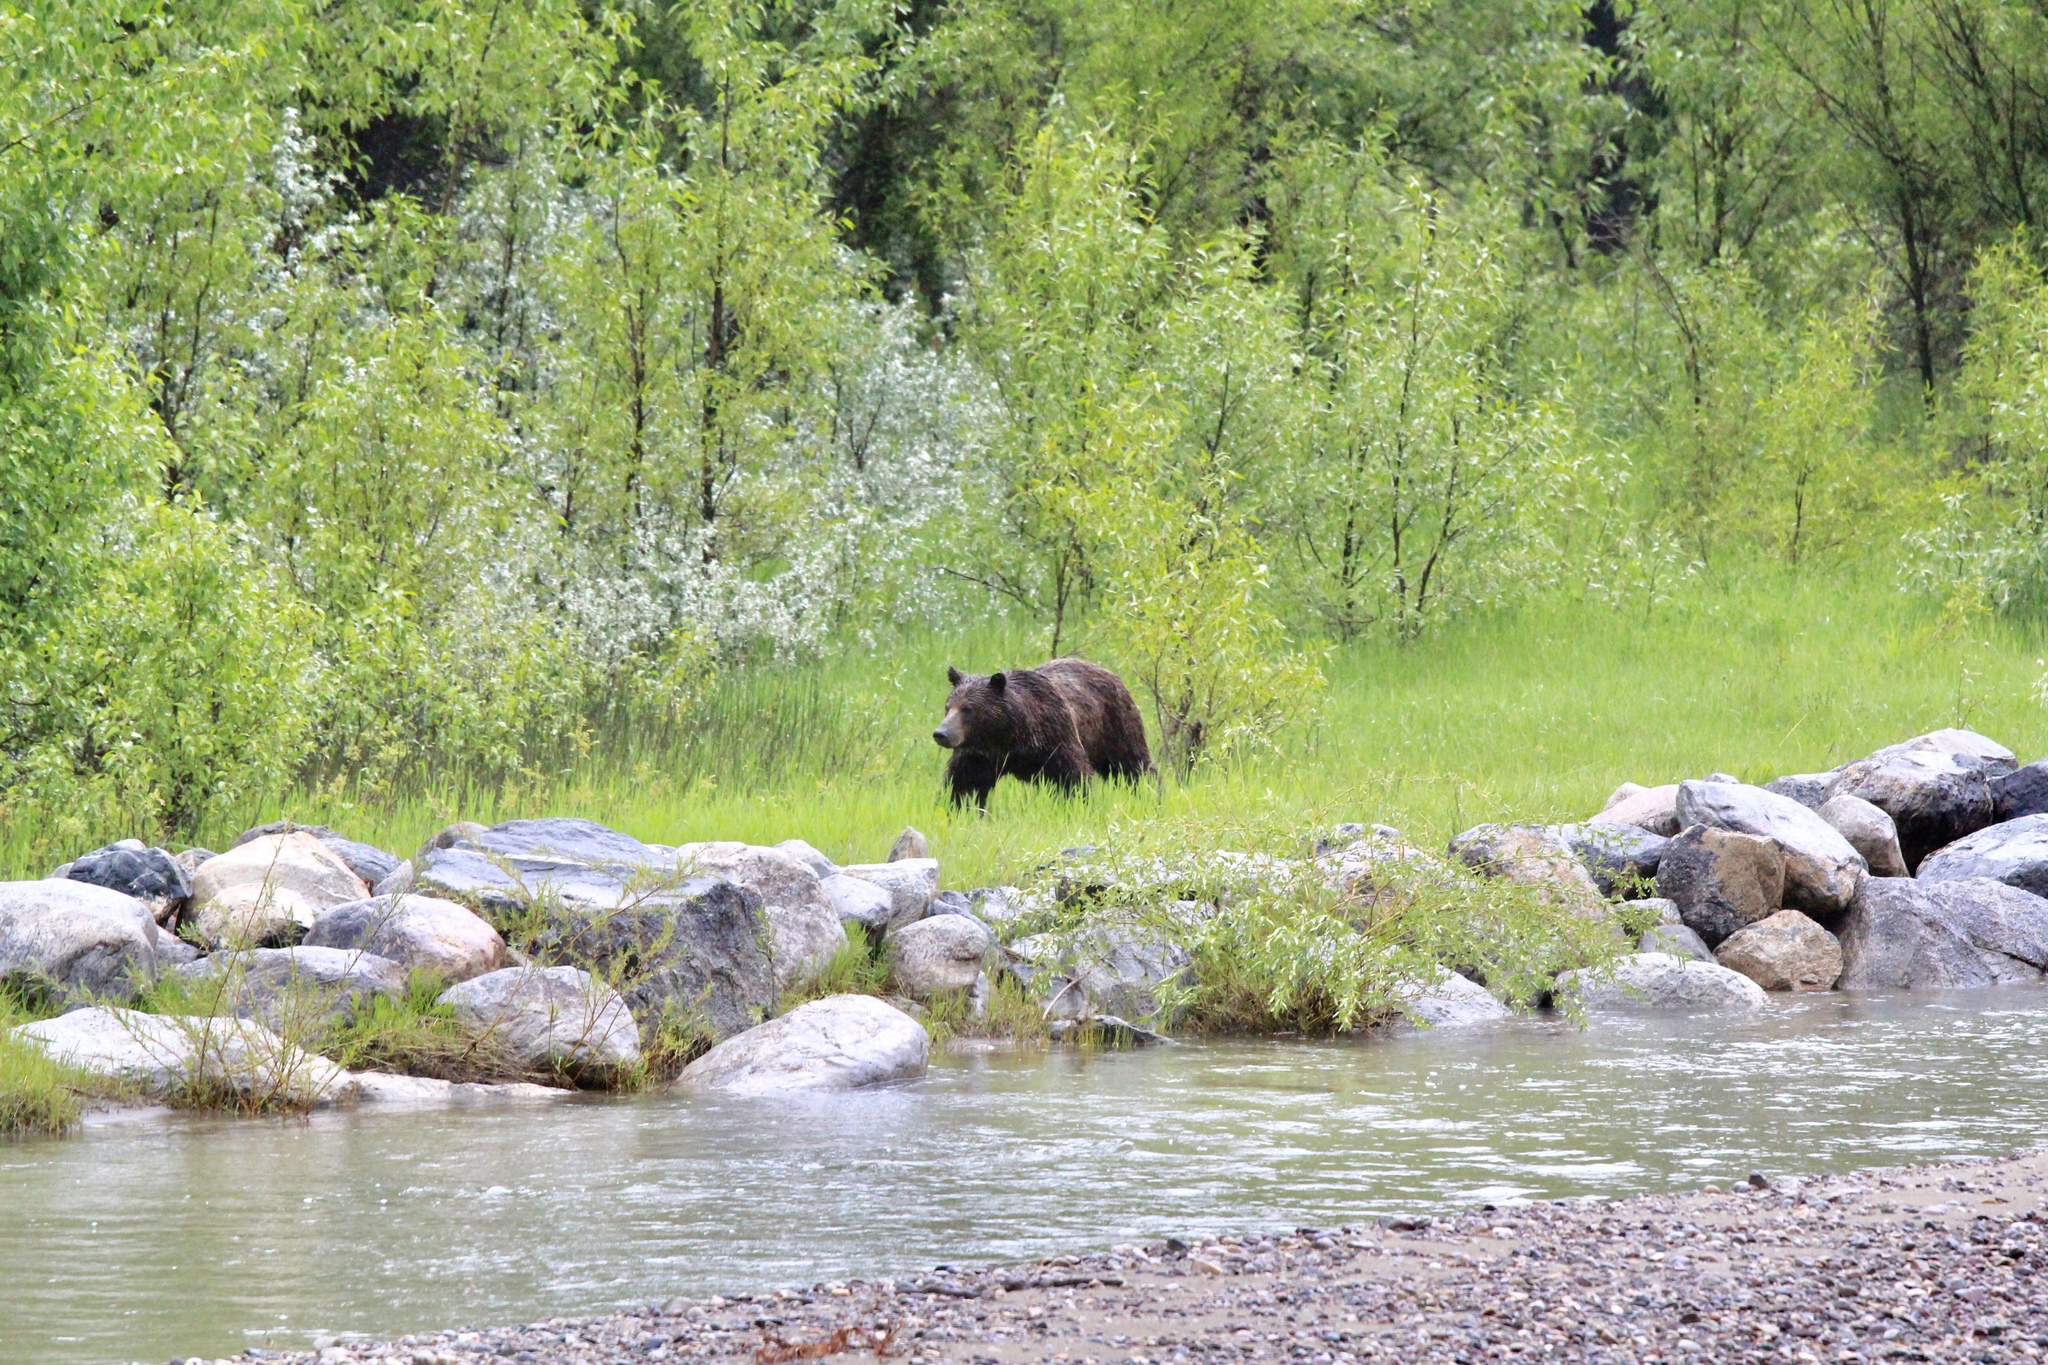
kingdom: Animalia
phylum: Chordata
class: Mammalia
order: Carnivora
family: Ursidae
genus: Ursus
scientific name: Ursus arctos
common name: Brown bear
